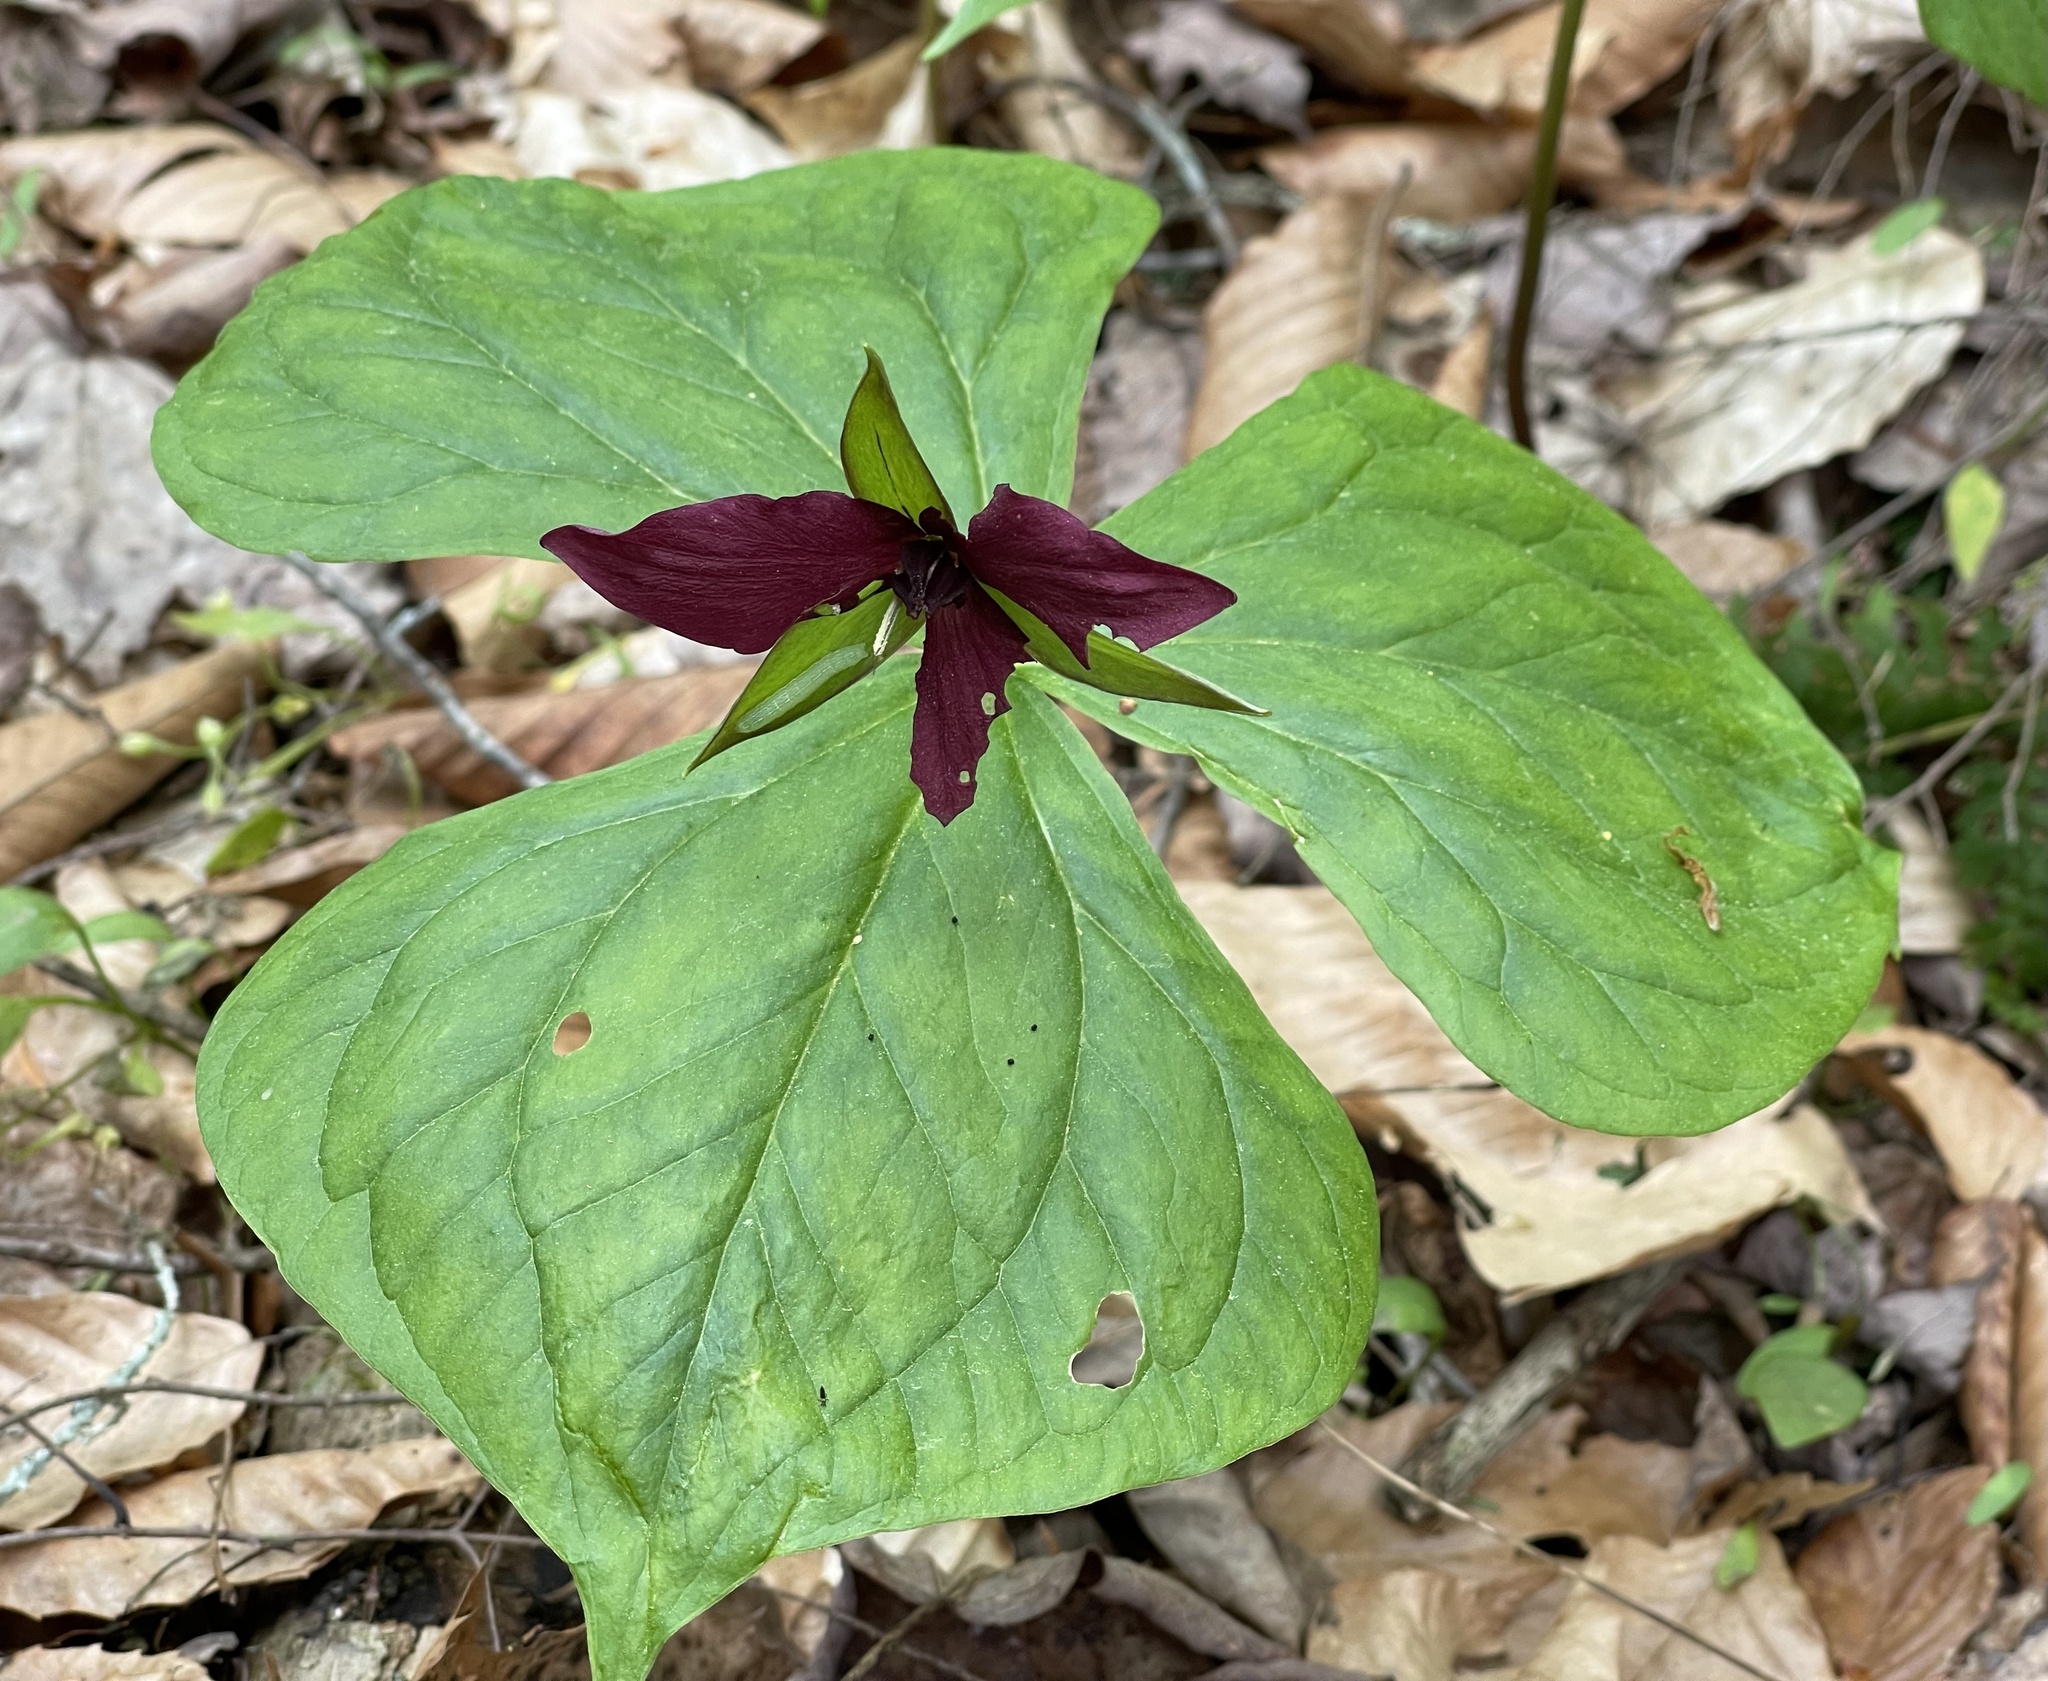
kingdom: Plantae
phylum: Tracheophyta
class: Liliopsida
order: Liliales
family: Melanthiaceae
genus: Trillium
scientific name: Trillium erectum
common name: Purple trillium
